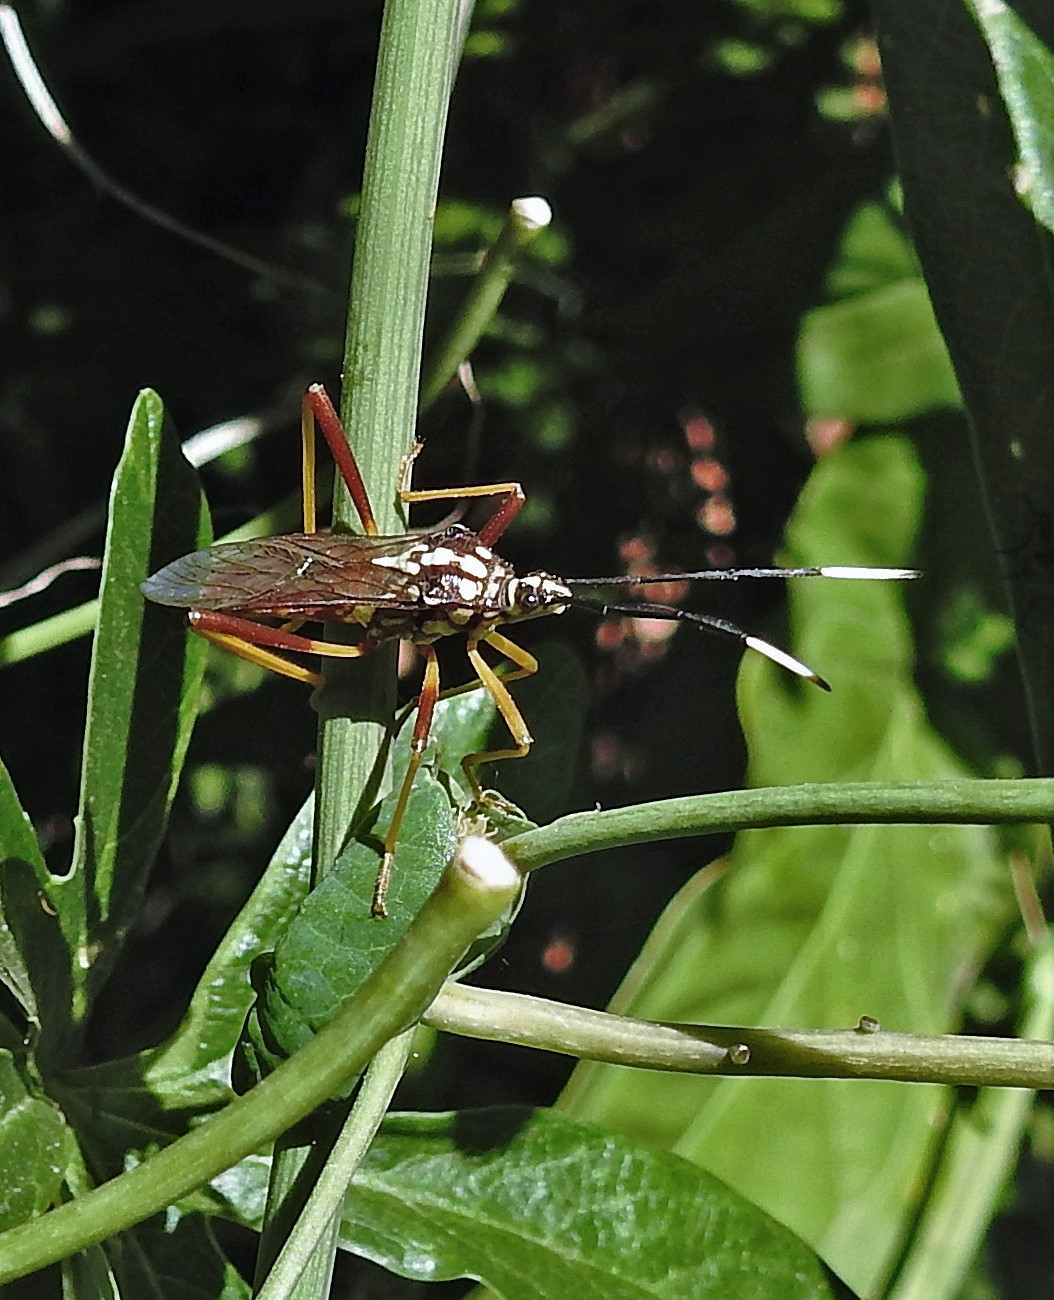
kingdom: Animalia
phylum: Arthropoda
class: Insecta
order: Hemiptera
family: Coreidae
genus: Holhymenia
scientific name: Holhymenia histrio
